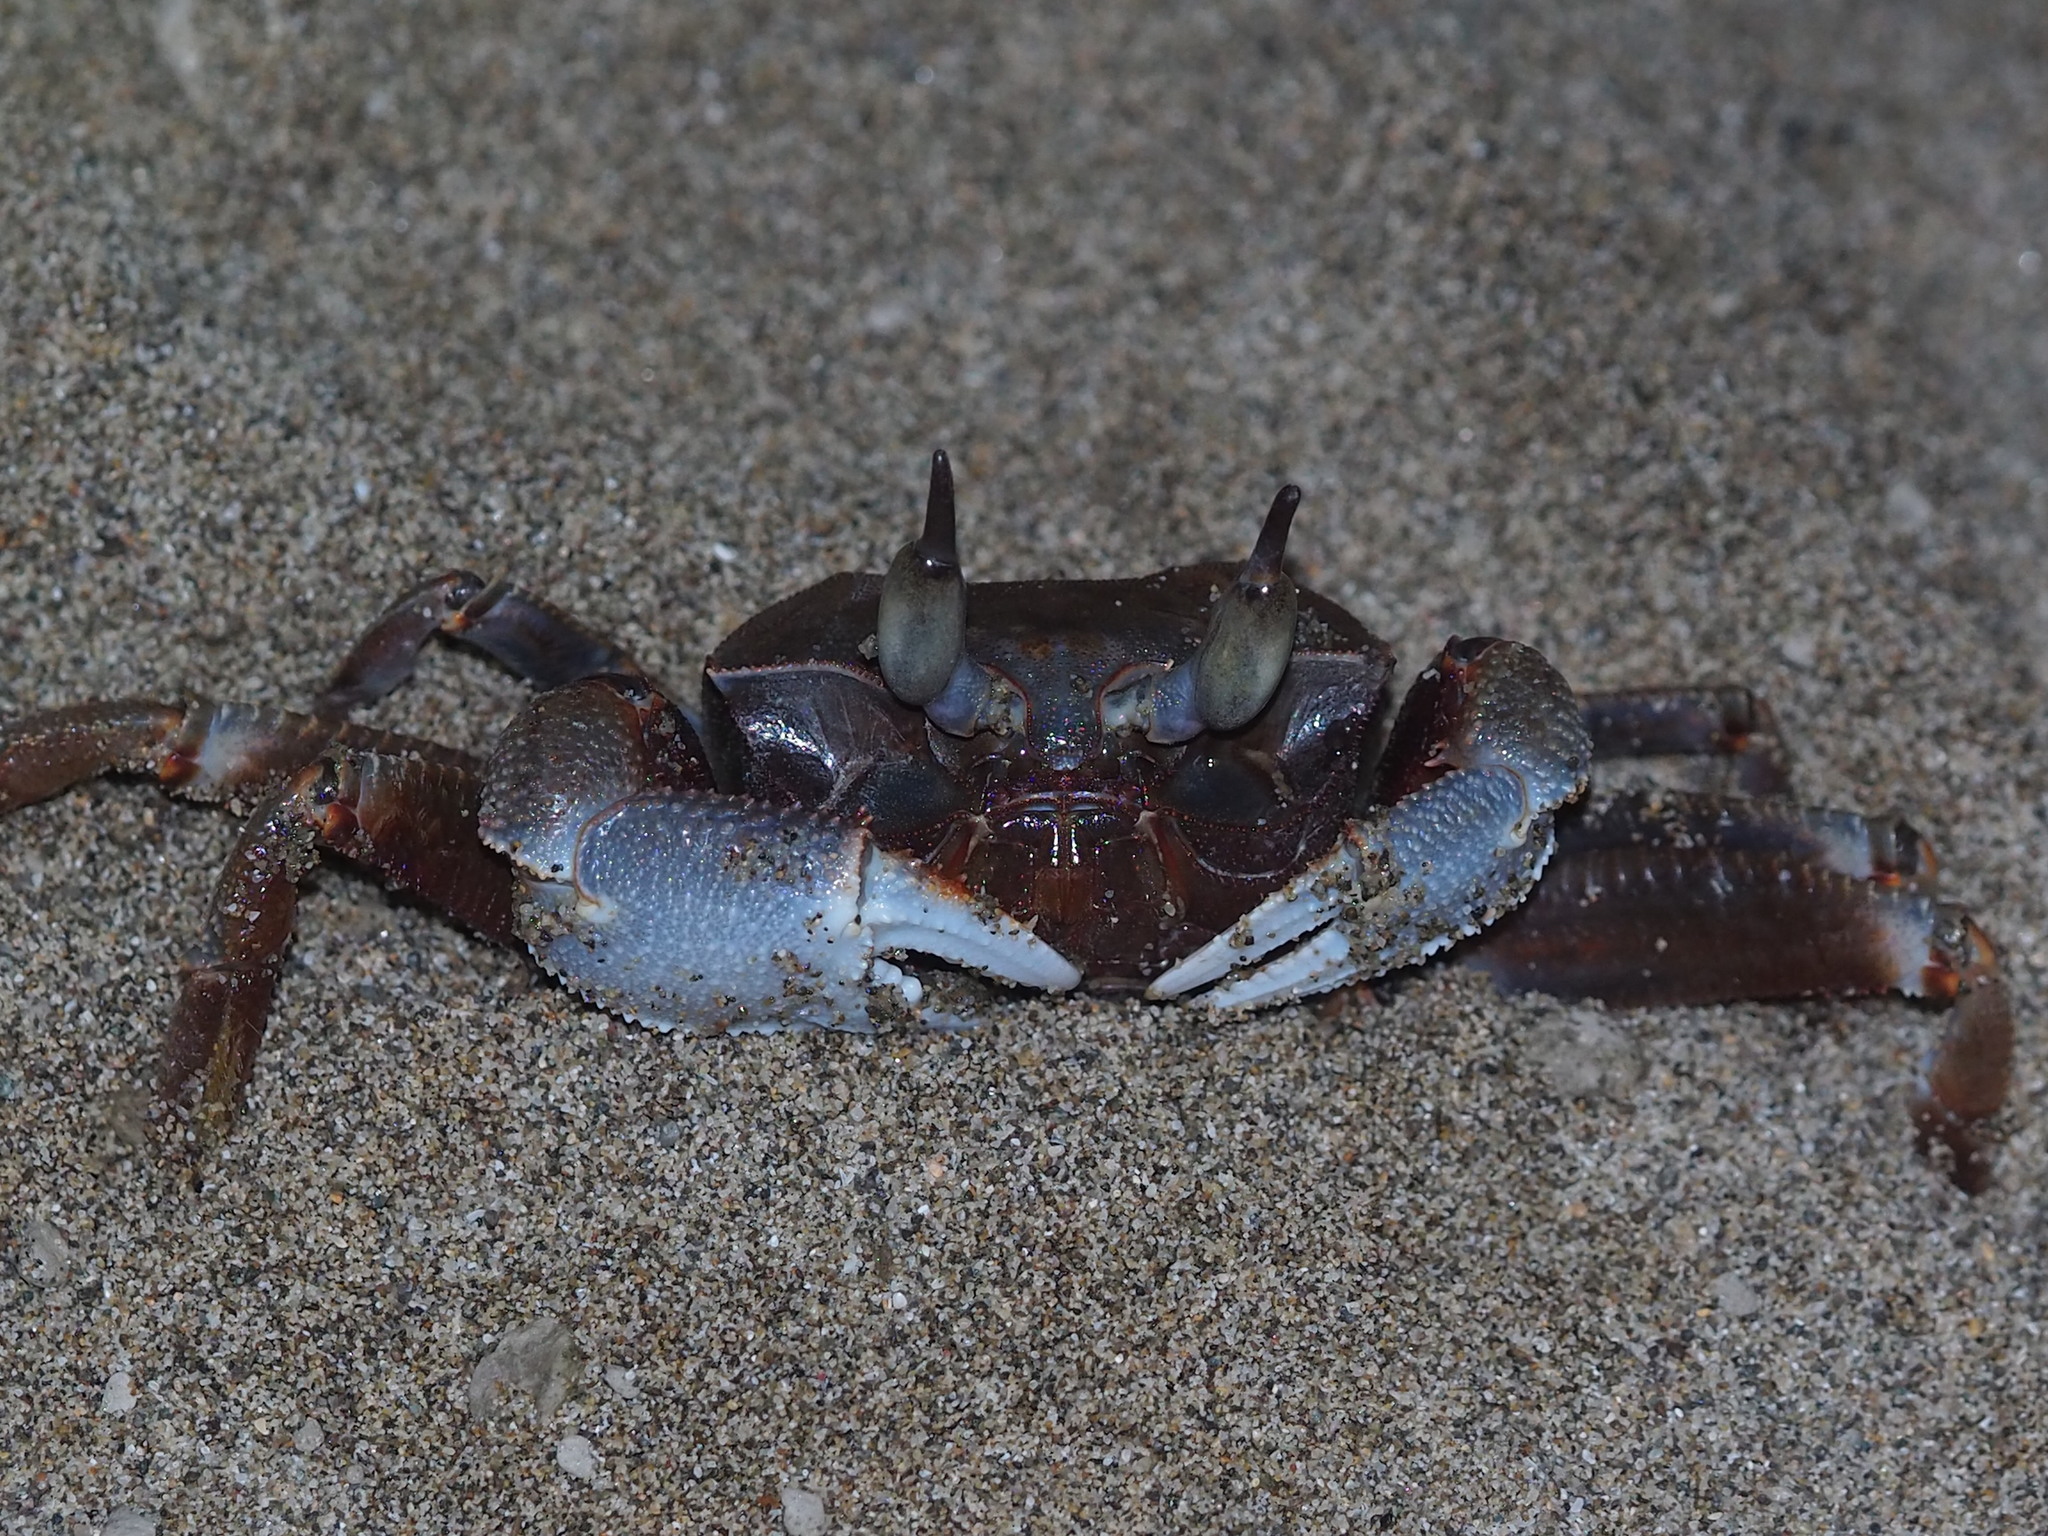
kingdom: Animalia
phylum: Arthropoda
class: Malacostraca
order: Decapoda
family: Ocypodidae
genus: Ocypode
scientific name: Ocypode ceratophthalmus
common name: Indo-pacific ghost crab
